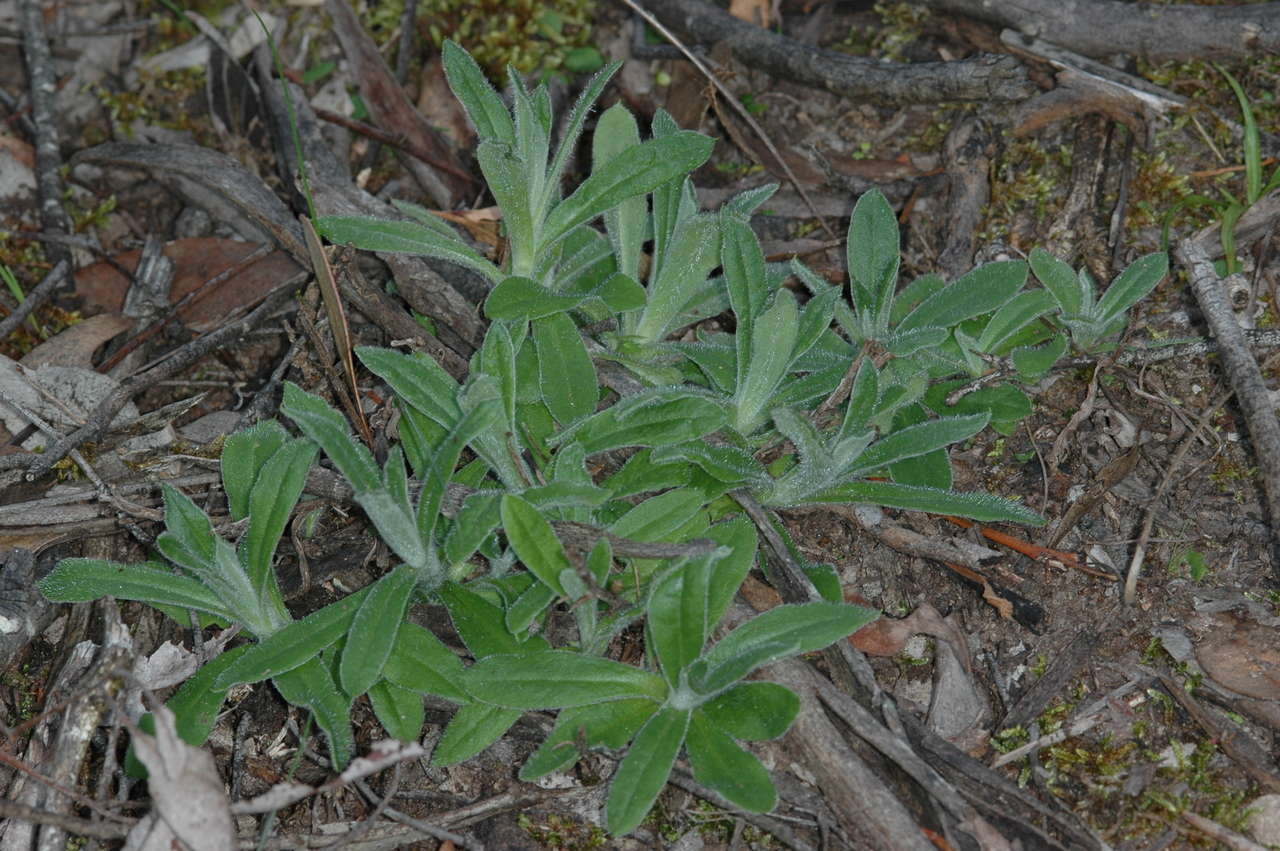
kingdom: Plantae
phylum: Tracheophyta
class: Magnoliopsida
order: Asterales
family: Asteraceae
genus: Coronidium
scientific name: Coronidium scorpioides
